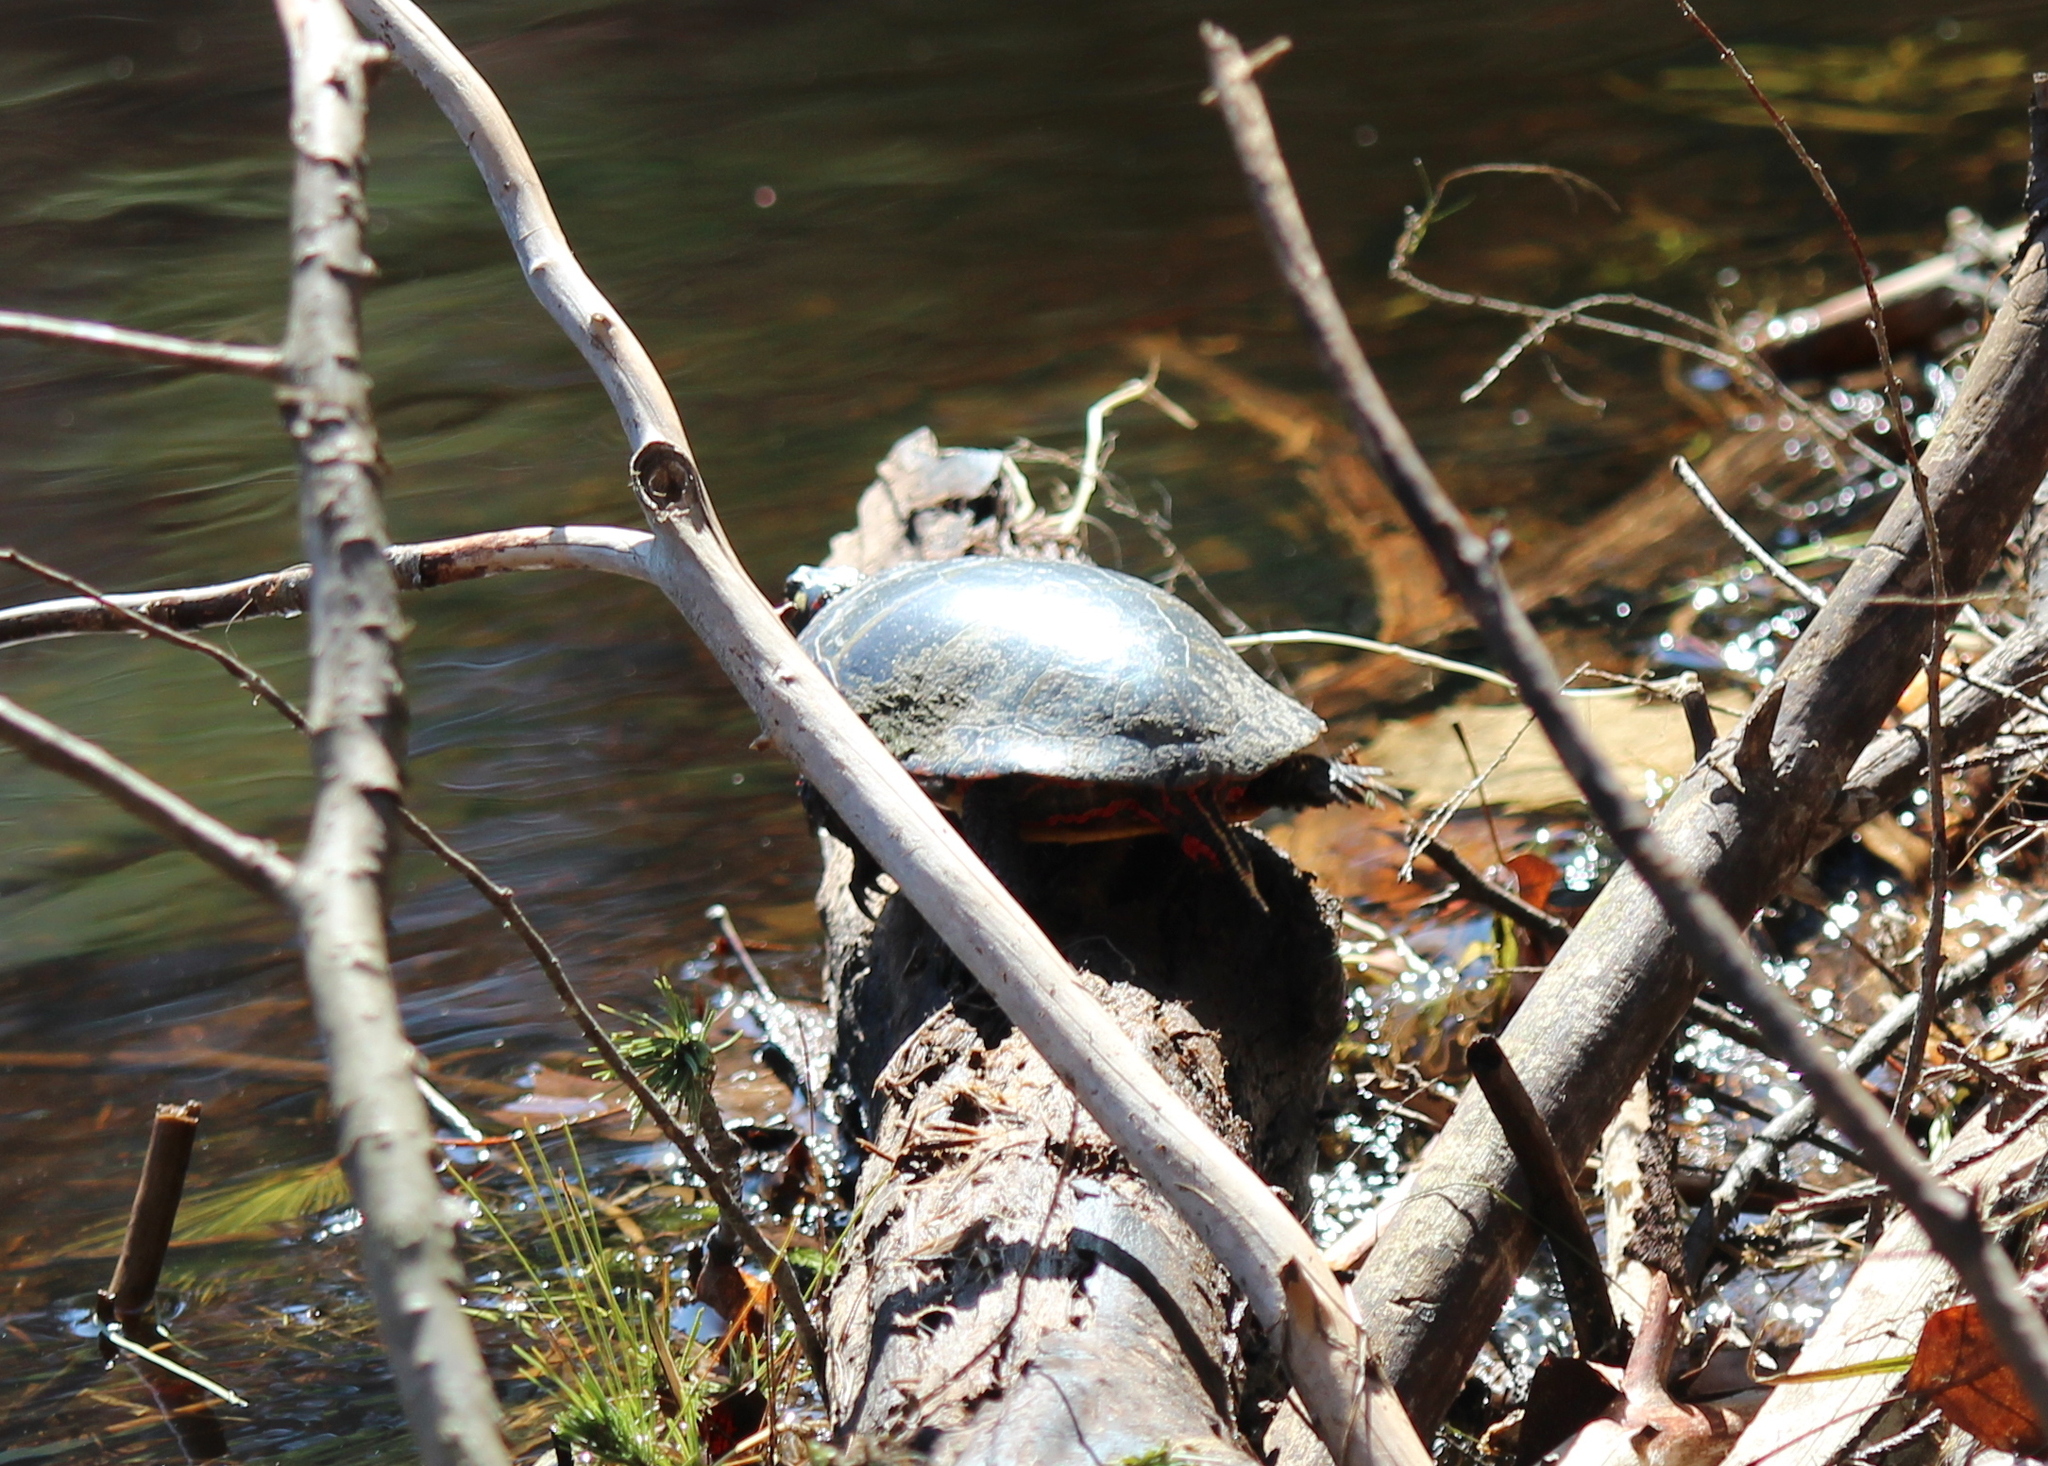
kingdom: Animalia
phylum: Chordata
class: Testudines
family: Emydidae
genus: Chrysemys
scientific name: Chrysemys picta
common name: Painted turtle
